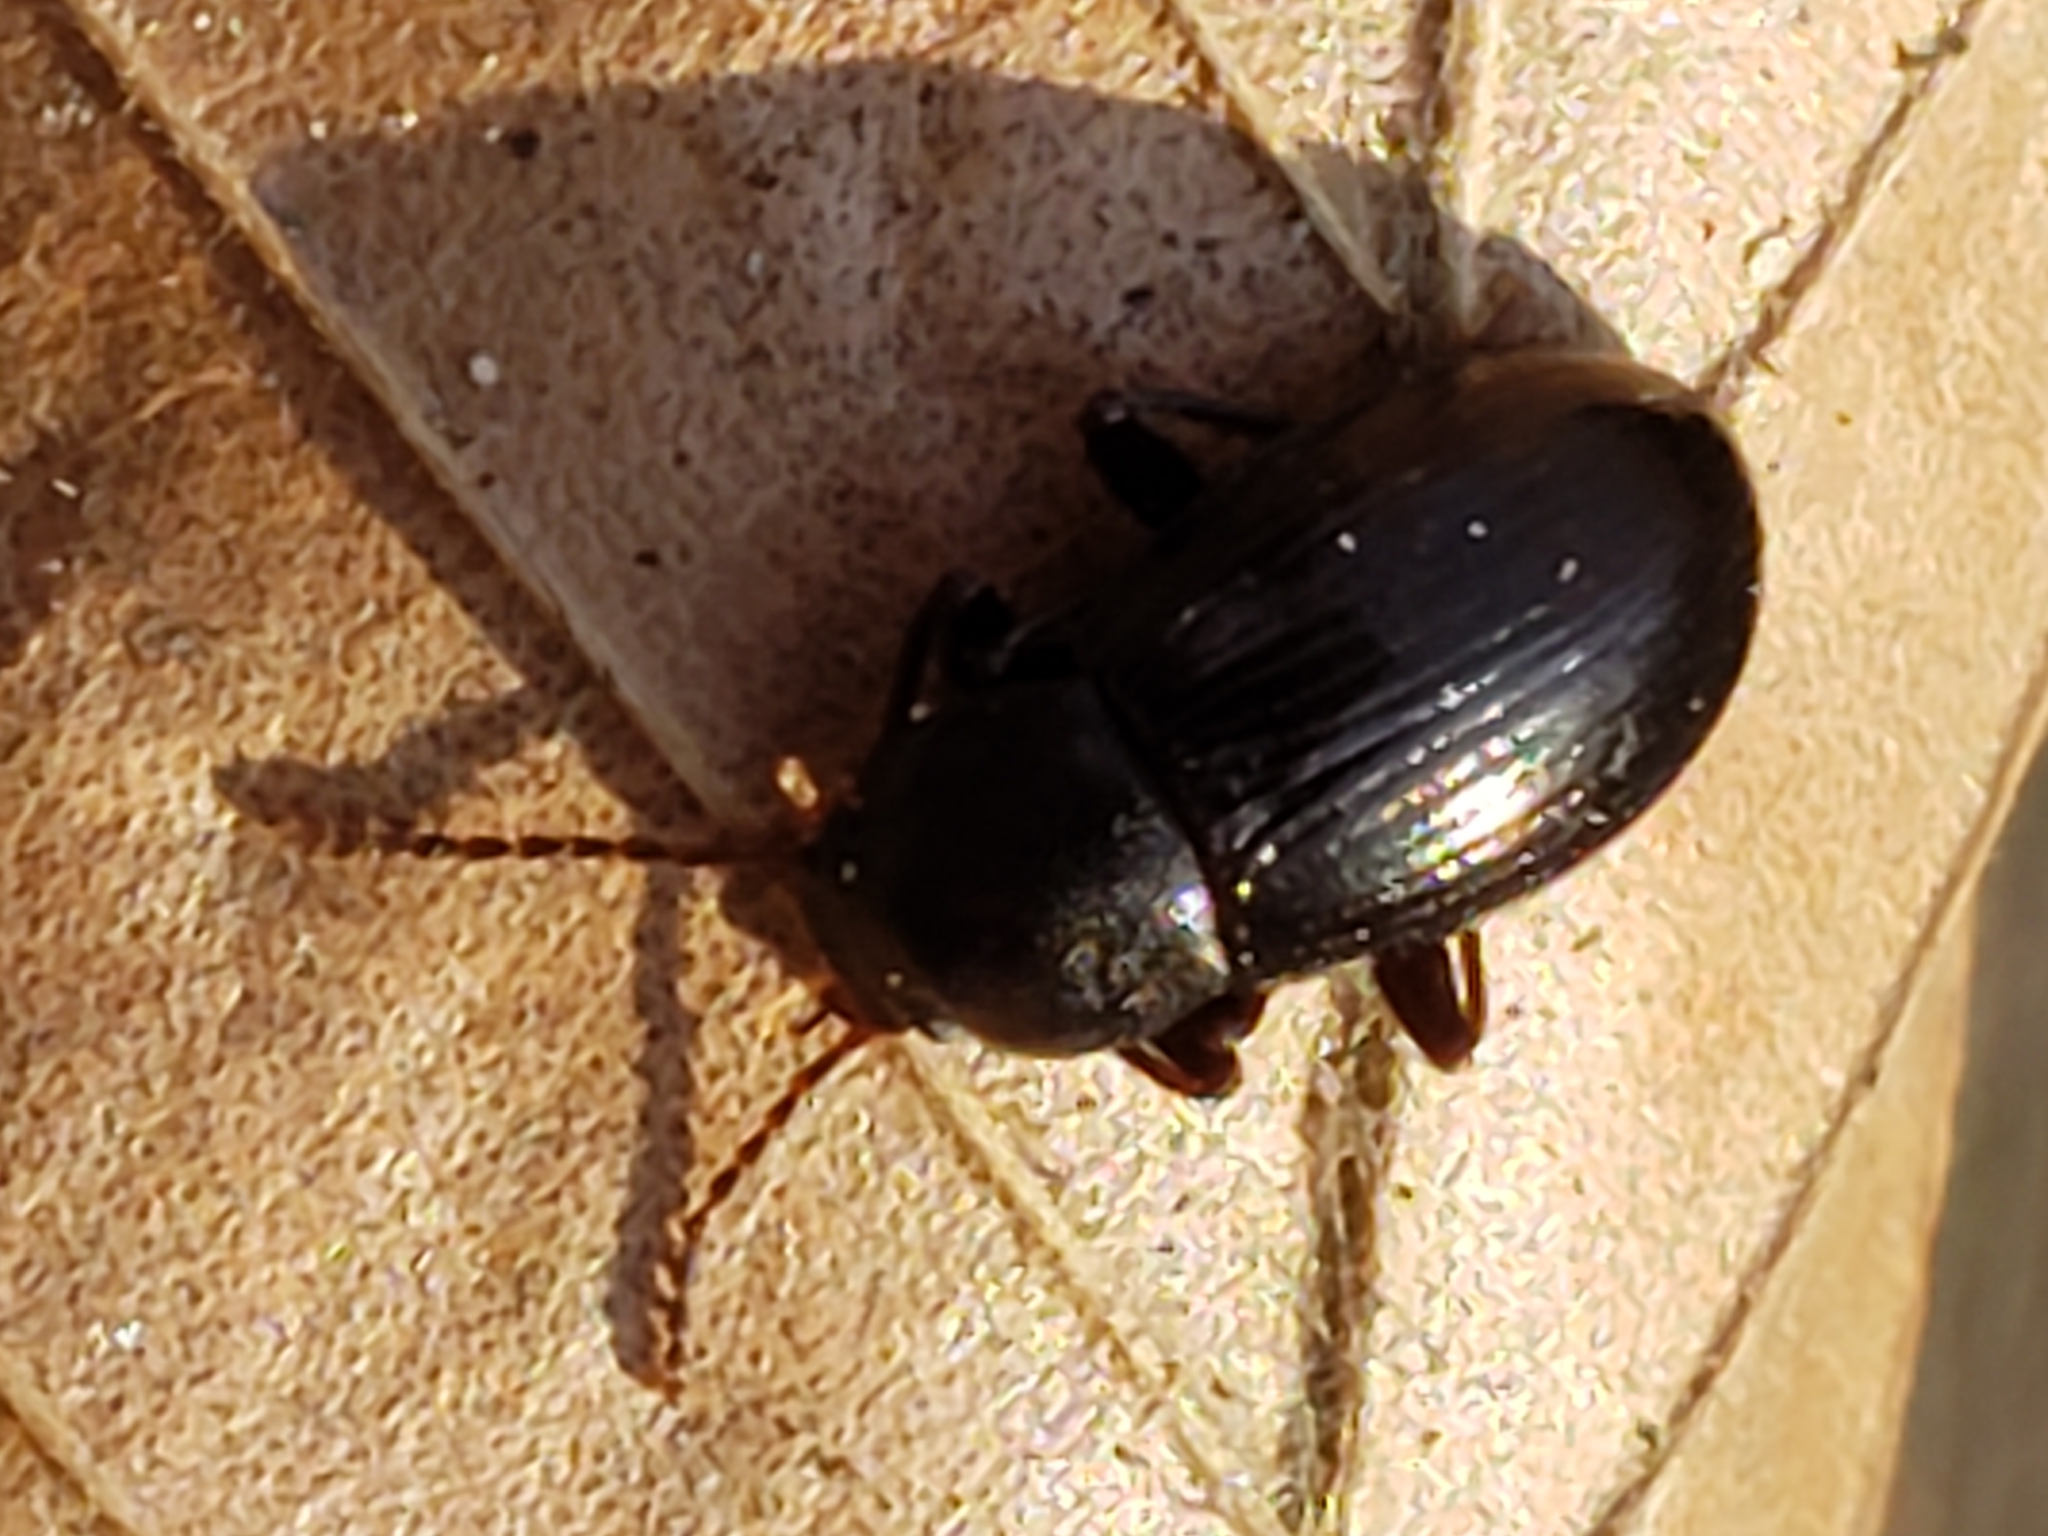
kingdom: Animalia
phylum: Arthropoda
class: Insecta
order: Coleoptera
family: Tenebrionidae
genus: Nalassus
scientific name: Nalassus aereus
